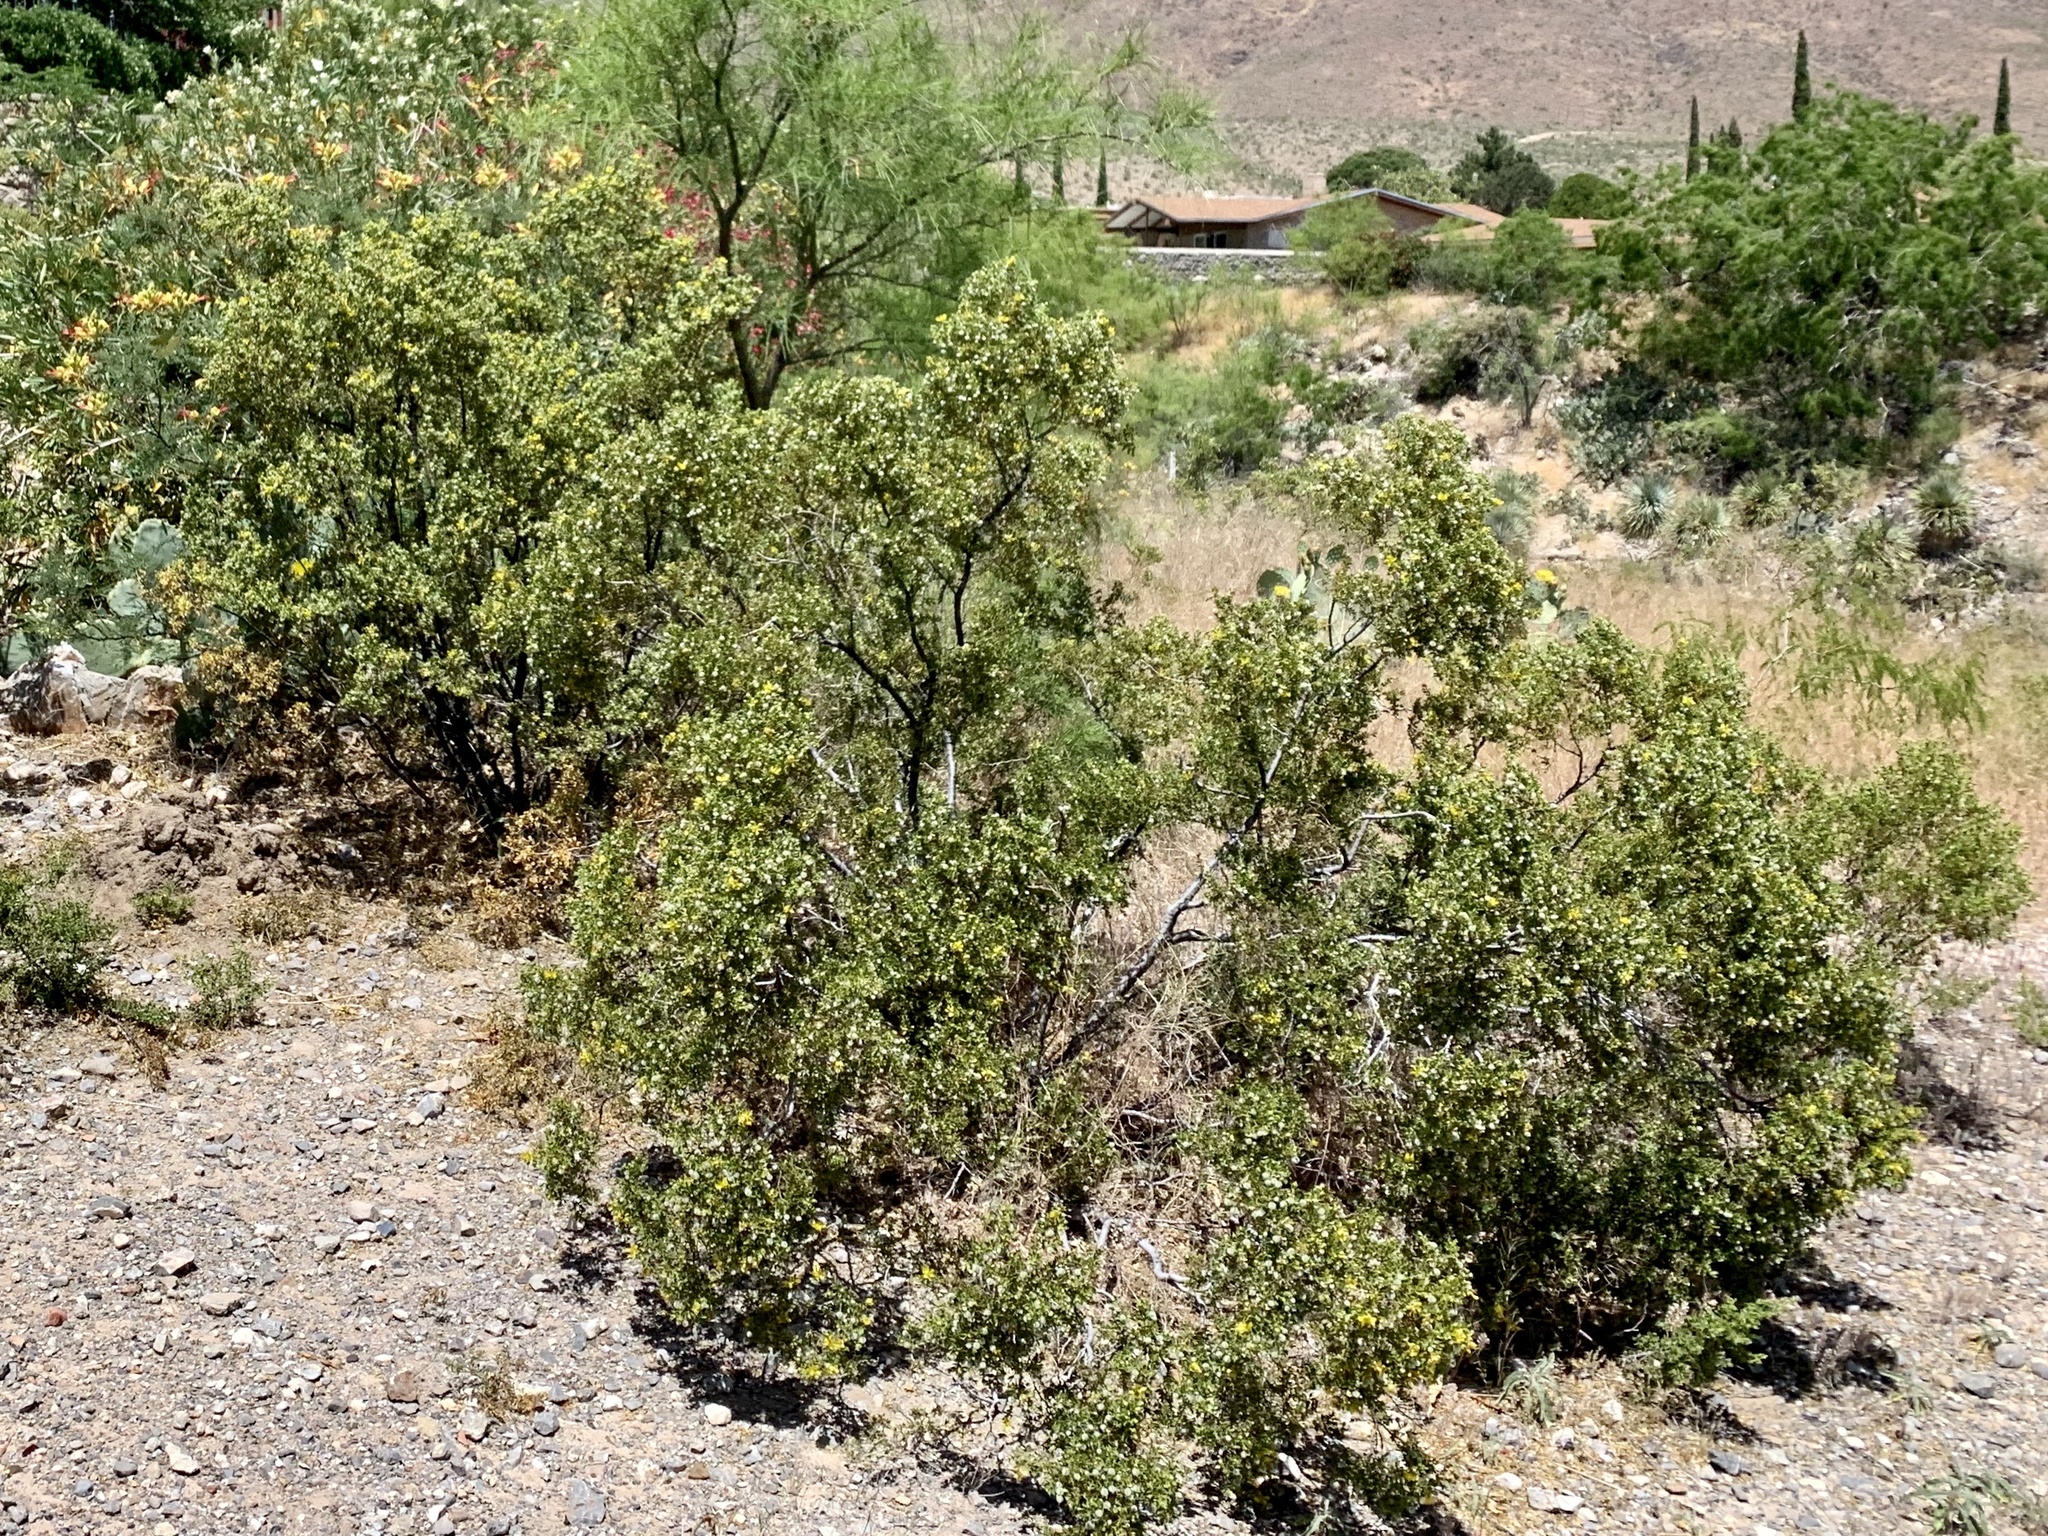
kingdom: Plantae
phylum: Tracheophyta
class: Magnoliopsida
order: Zygophyllales
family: Zygophyllaceae
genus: Larrea
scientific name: Larrea tridentata
